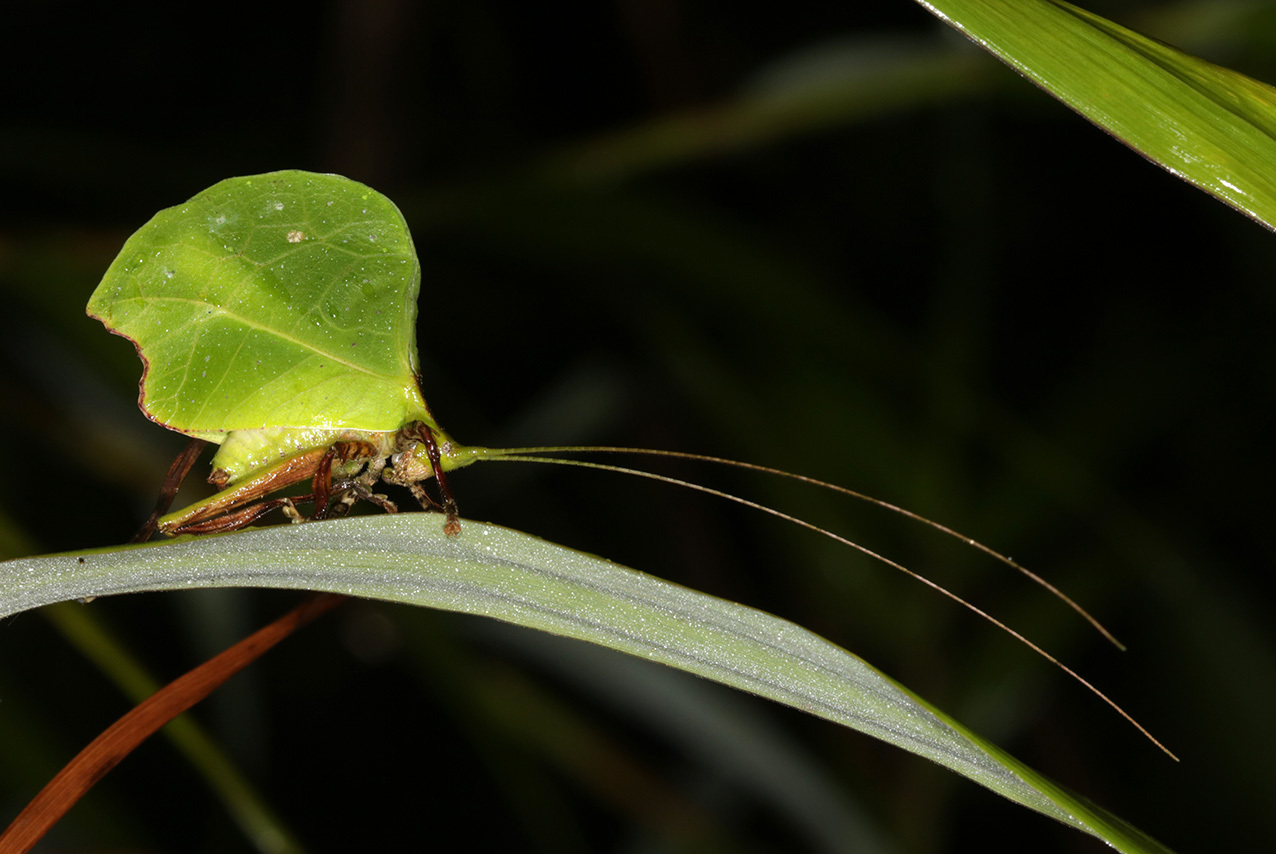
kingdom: Animalia
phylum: Arthropoda
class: Insecta
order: Orthoptera
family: Tettigoniidae
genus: Typophyllum
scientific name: Typophyllum mortuifolium
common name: Common little walking leaf
